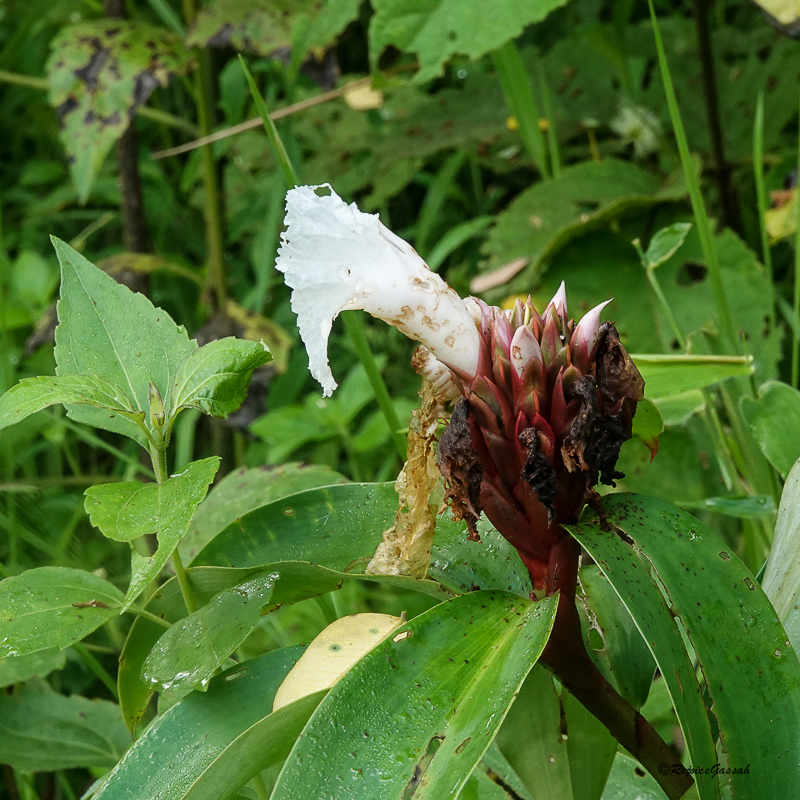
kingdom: Plantae
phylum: Tracheophyta
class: Liliopsida
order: Zingiberales
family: Costaceae
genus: Hellenia
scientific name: Hellenia speciosa
